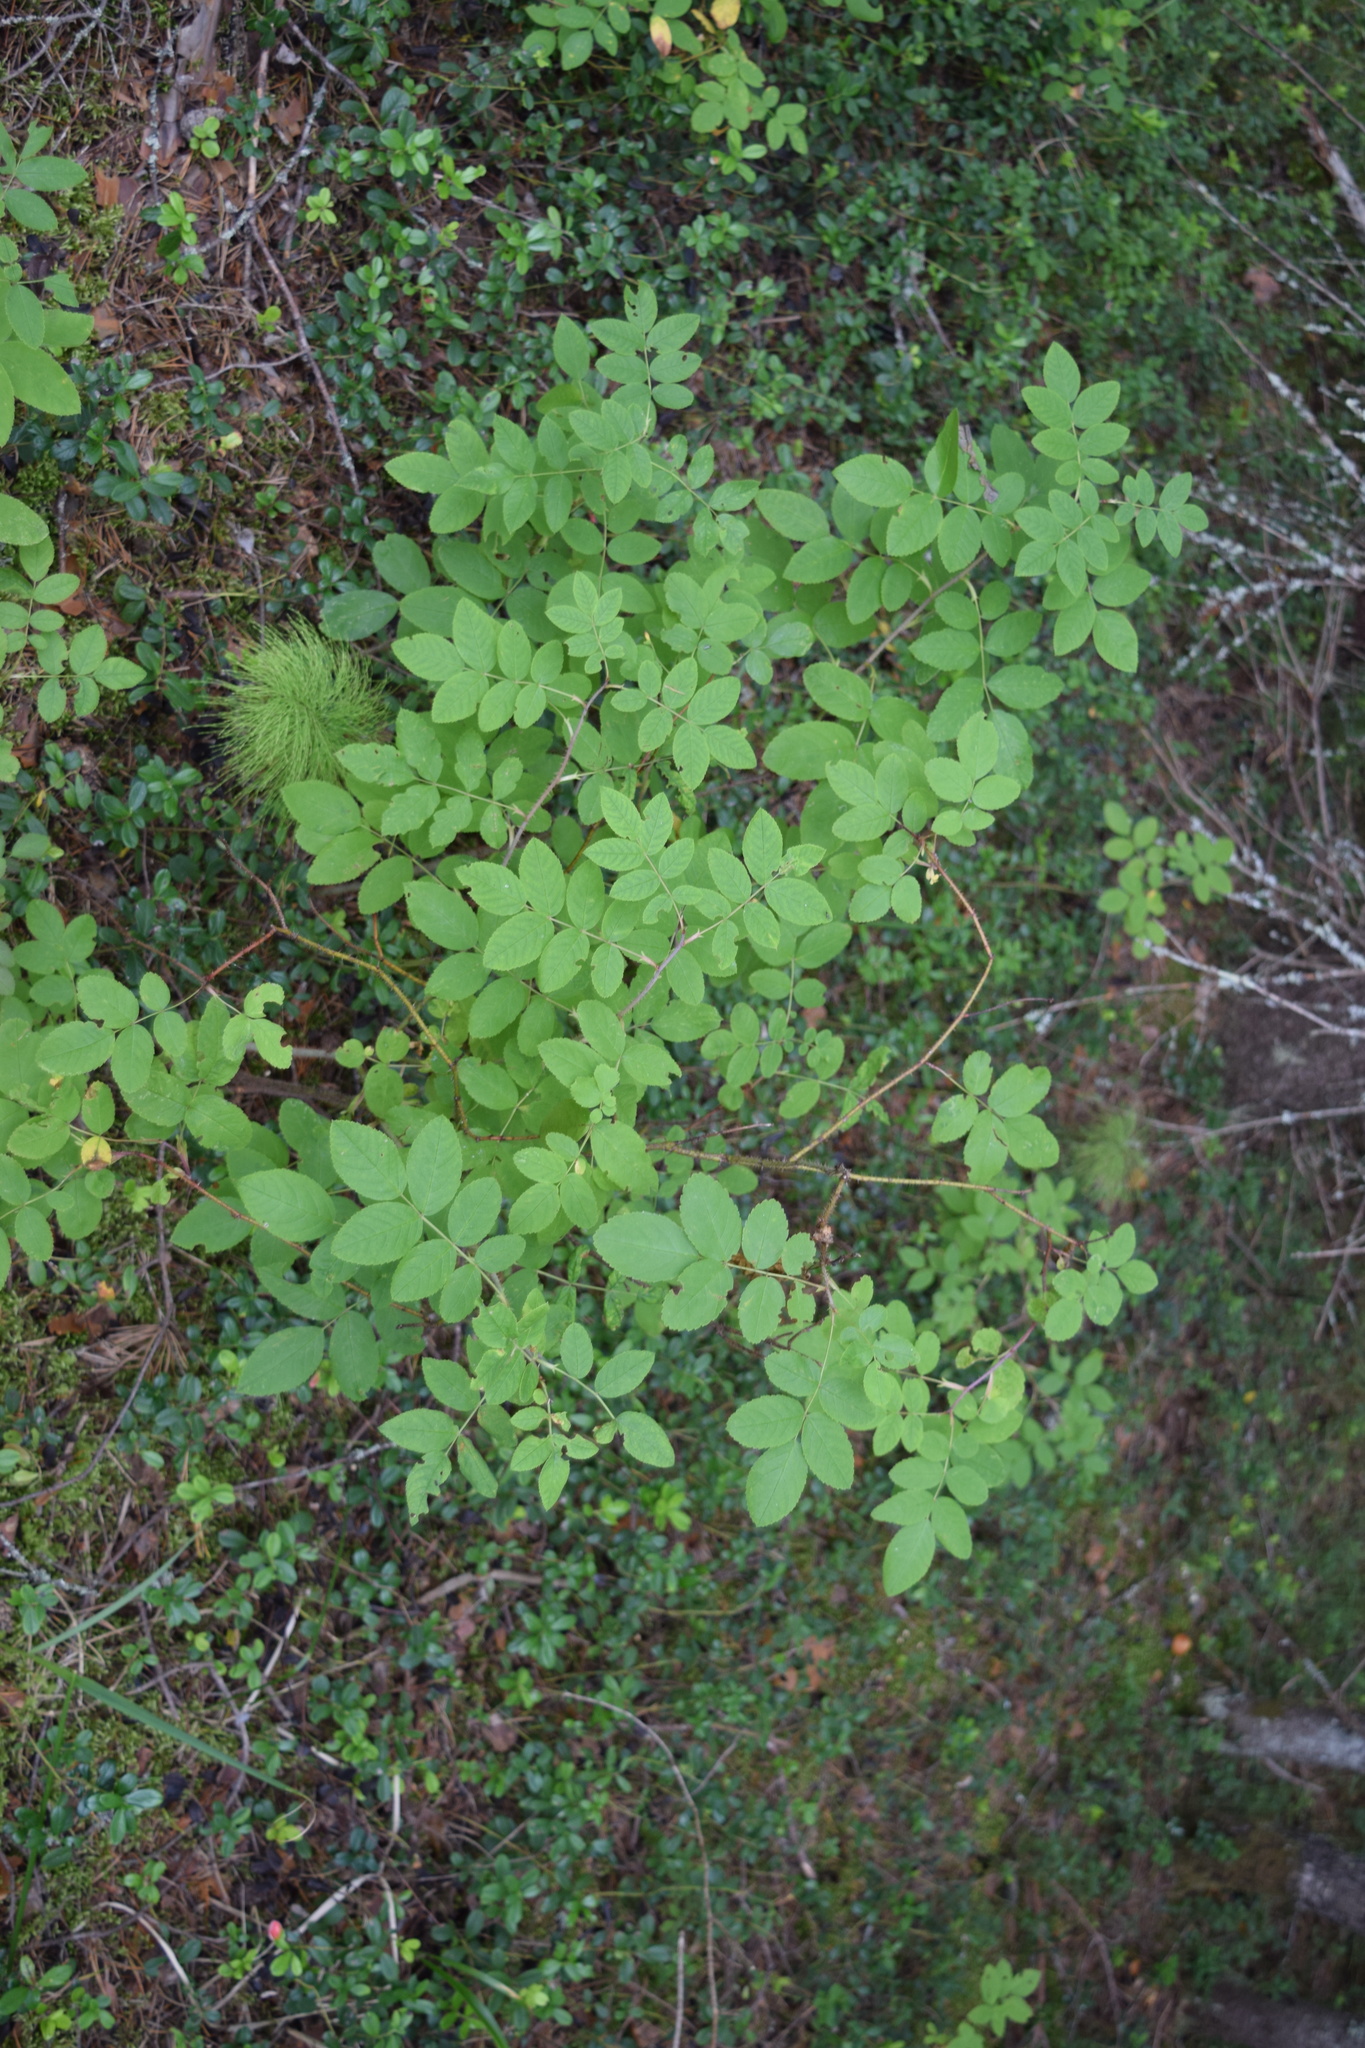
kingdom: Plantae
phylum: Tracheophyta
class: Magnoliopsida
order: Rosales
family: Rosaceae
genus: Rosa
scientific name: Rosa acicularis
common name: Prickly rose
